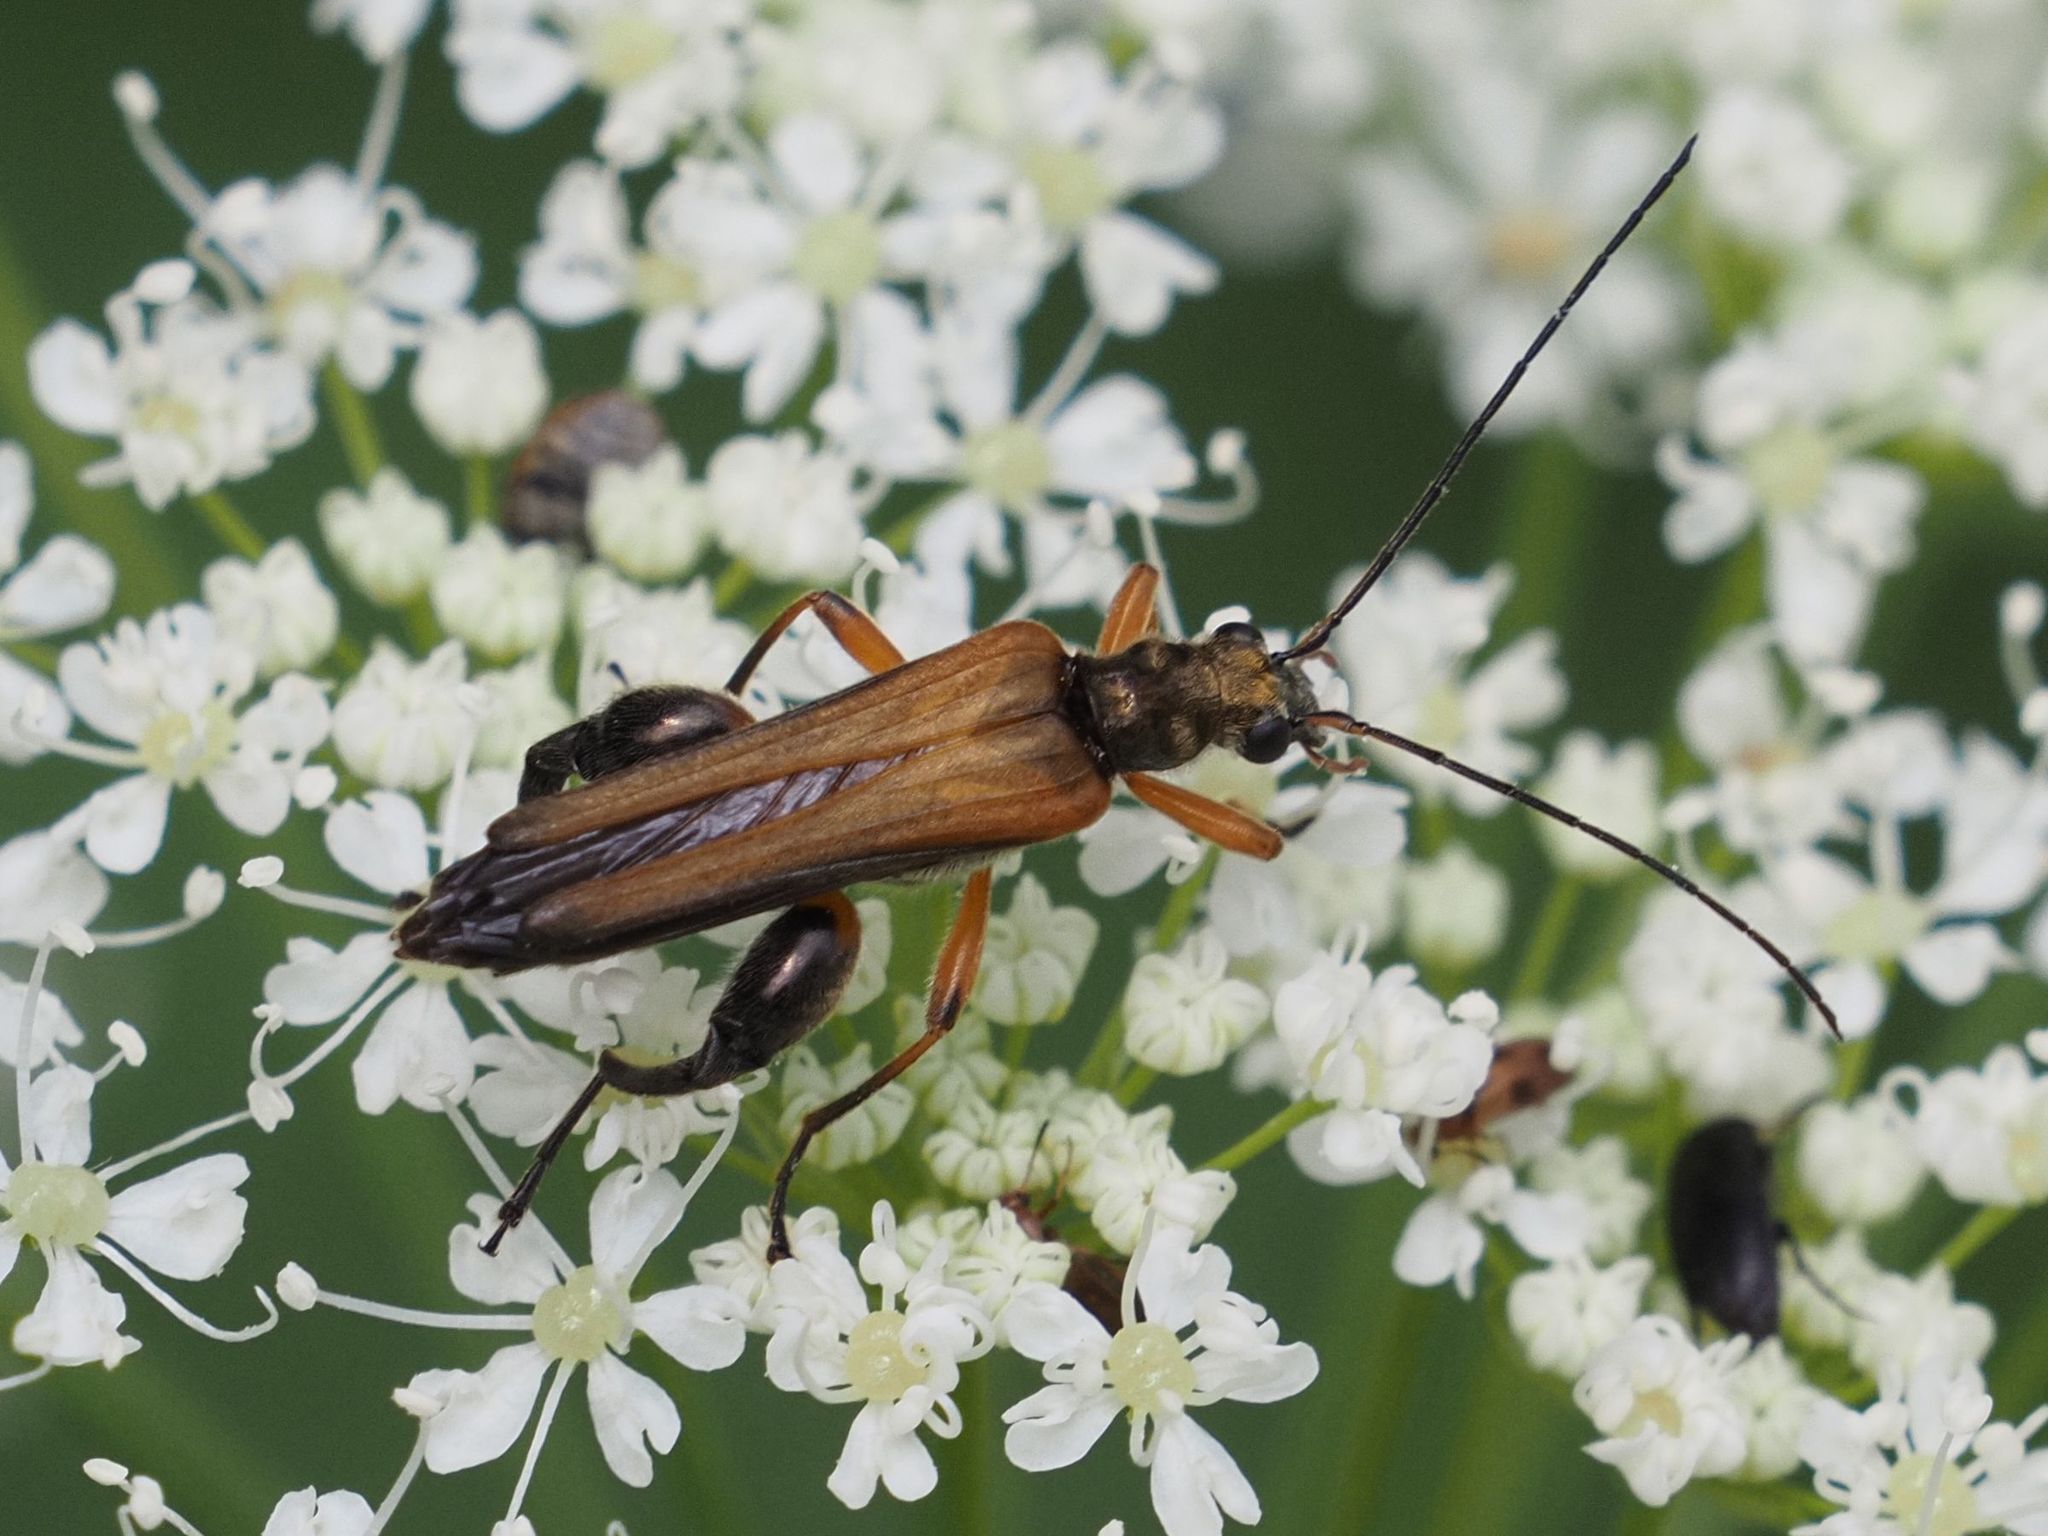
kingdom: Animalia
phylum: Arthropoda
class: Insecta
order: Coleoptera
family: Oedemeridae
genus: Oedemera
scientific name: Oedemera podagrariae
